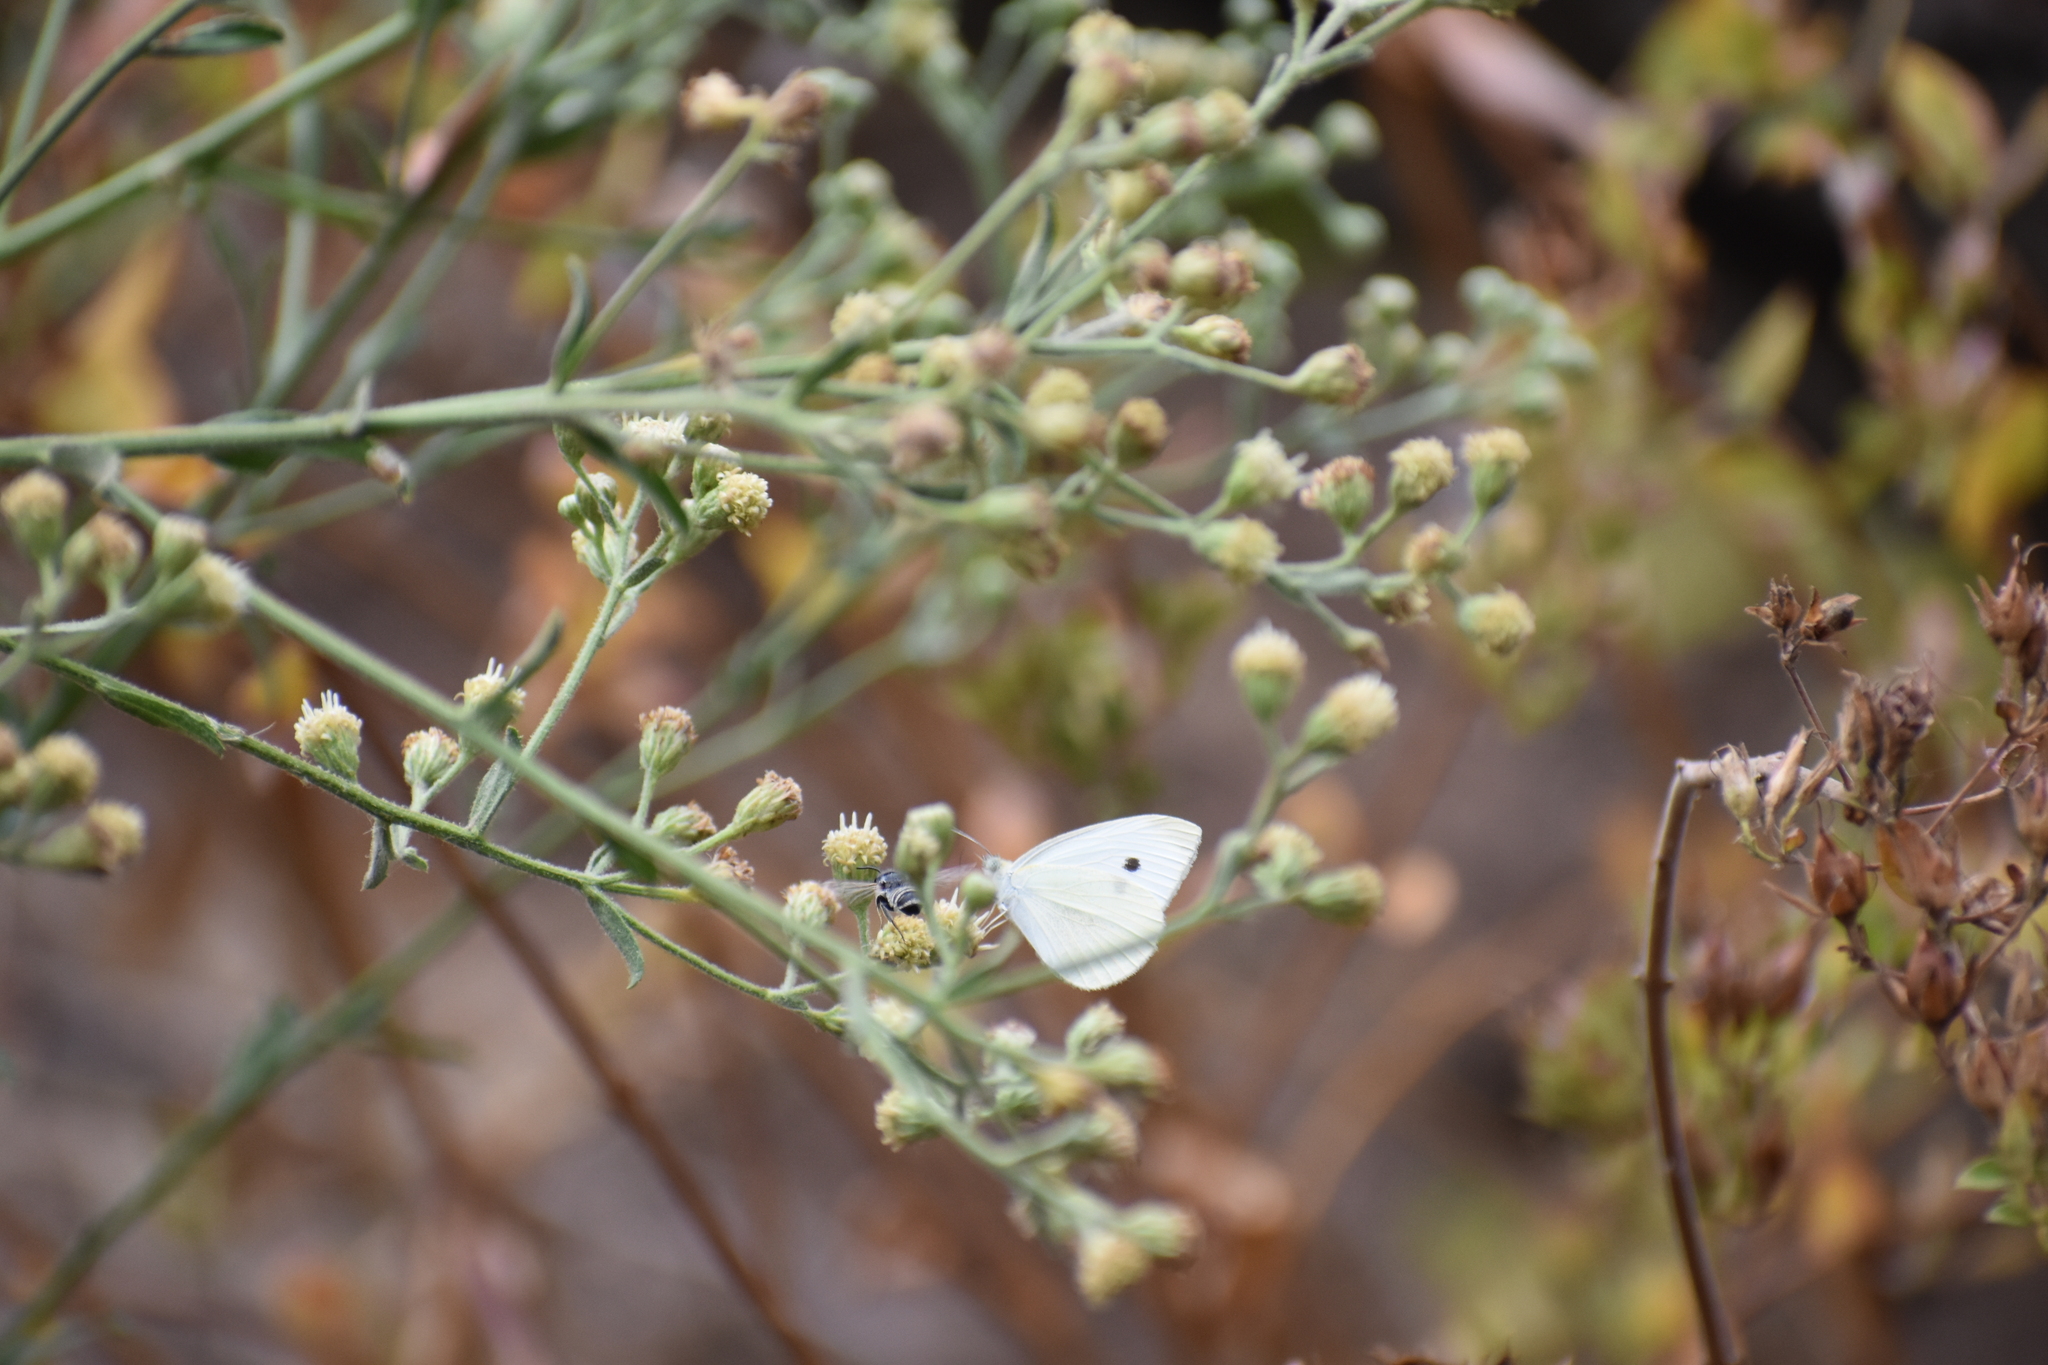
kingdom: Animalia
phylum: Arthropoda
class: Insecta
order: Lepidoptera
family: Pieridae
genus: Pieris
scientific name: Pieris rapae
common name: Small white
